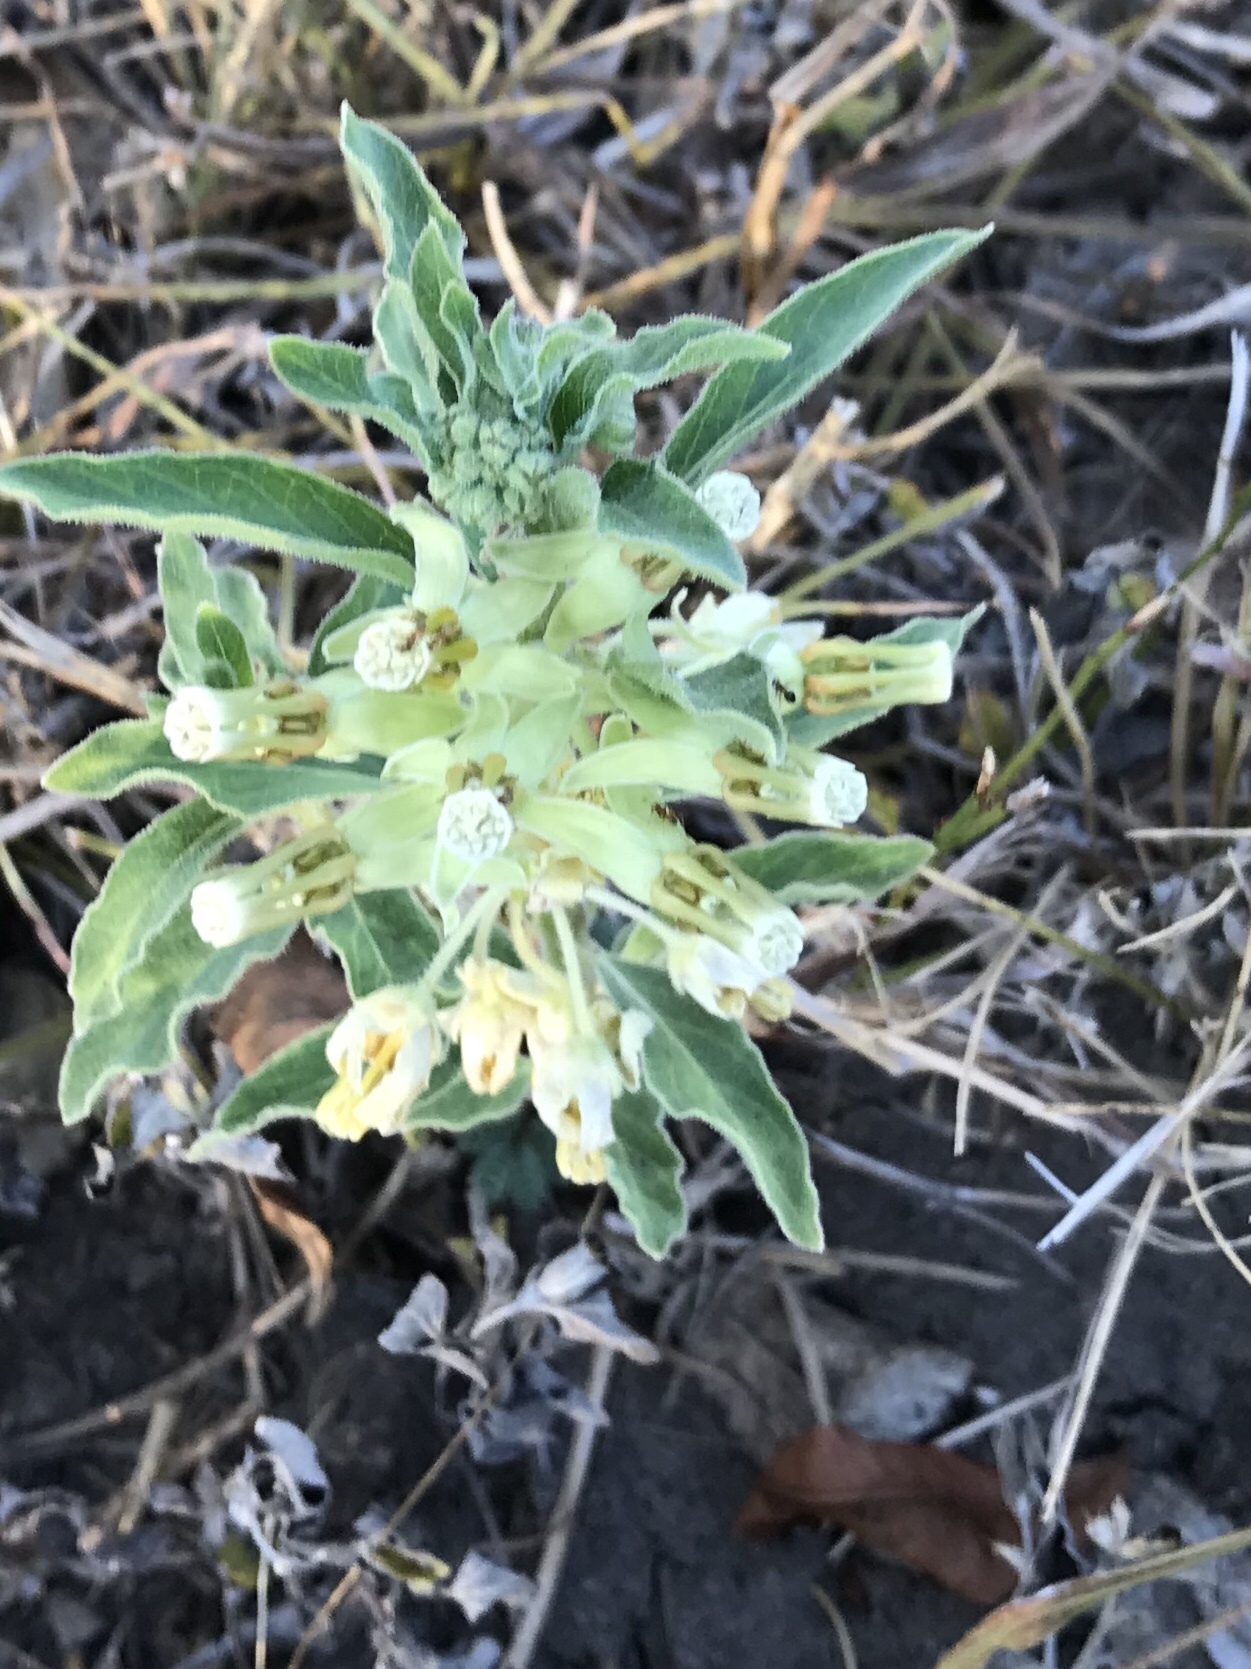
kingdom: Plantae
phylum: Tracheophyta
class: Magnoliopsida
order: Gentianales
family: Apocynaceae
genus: Asclepias
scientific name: Asclepias oenotheroides
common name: Zizotes milkweed
